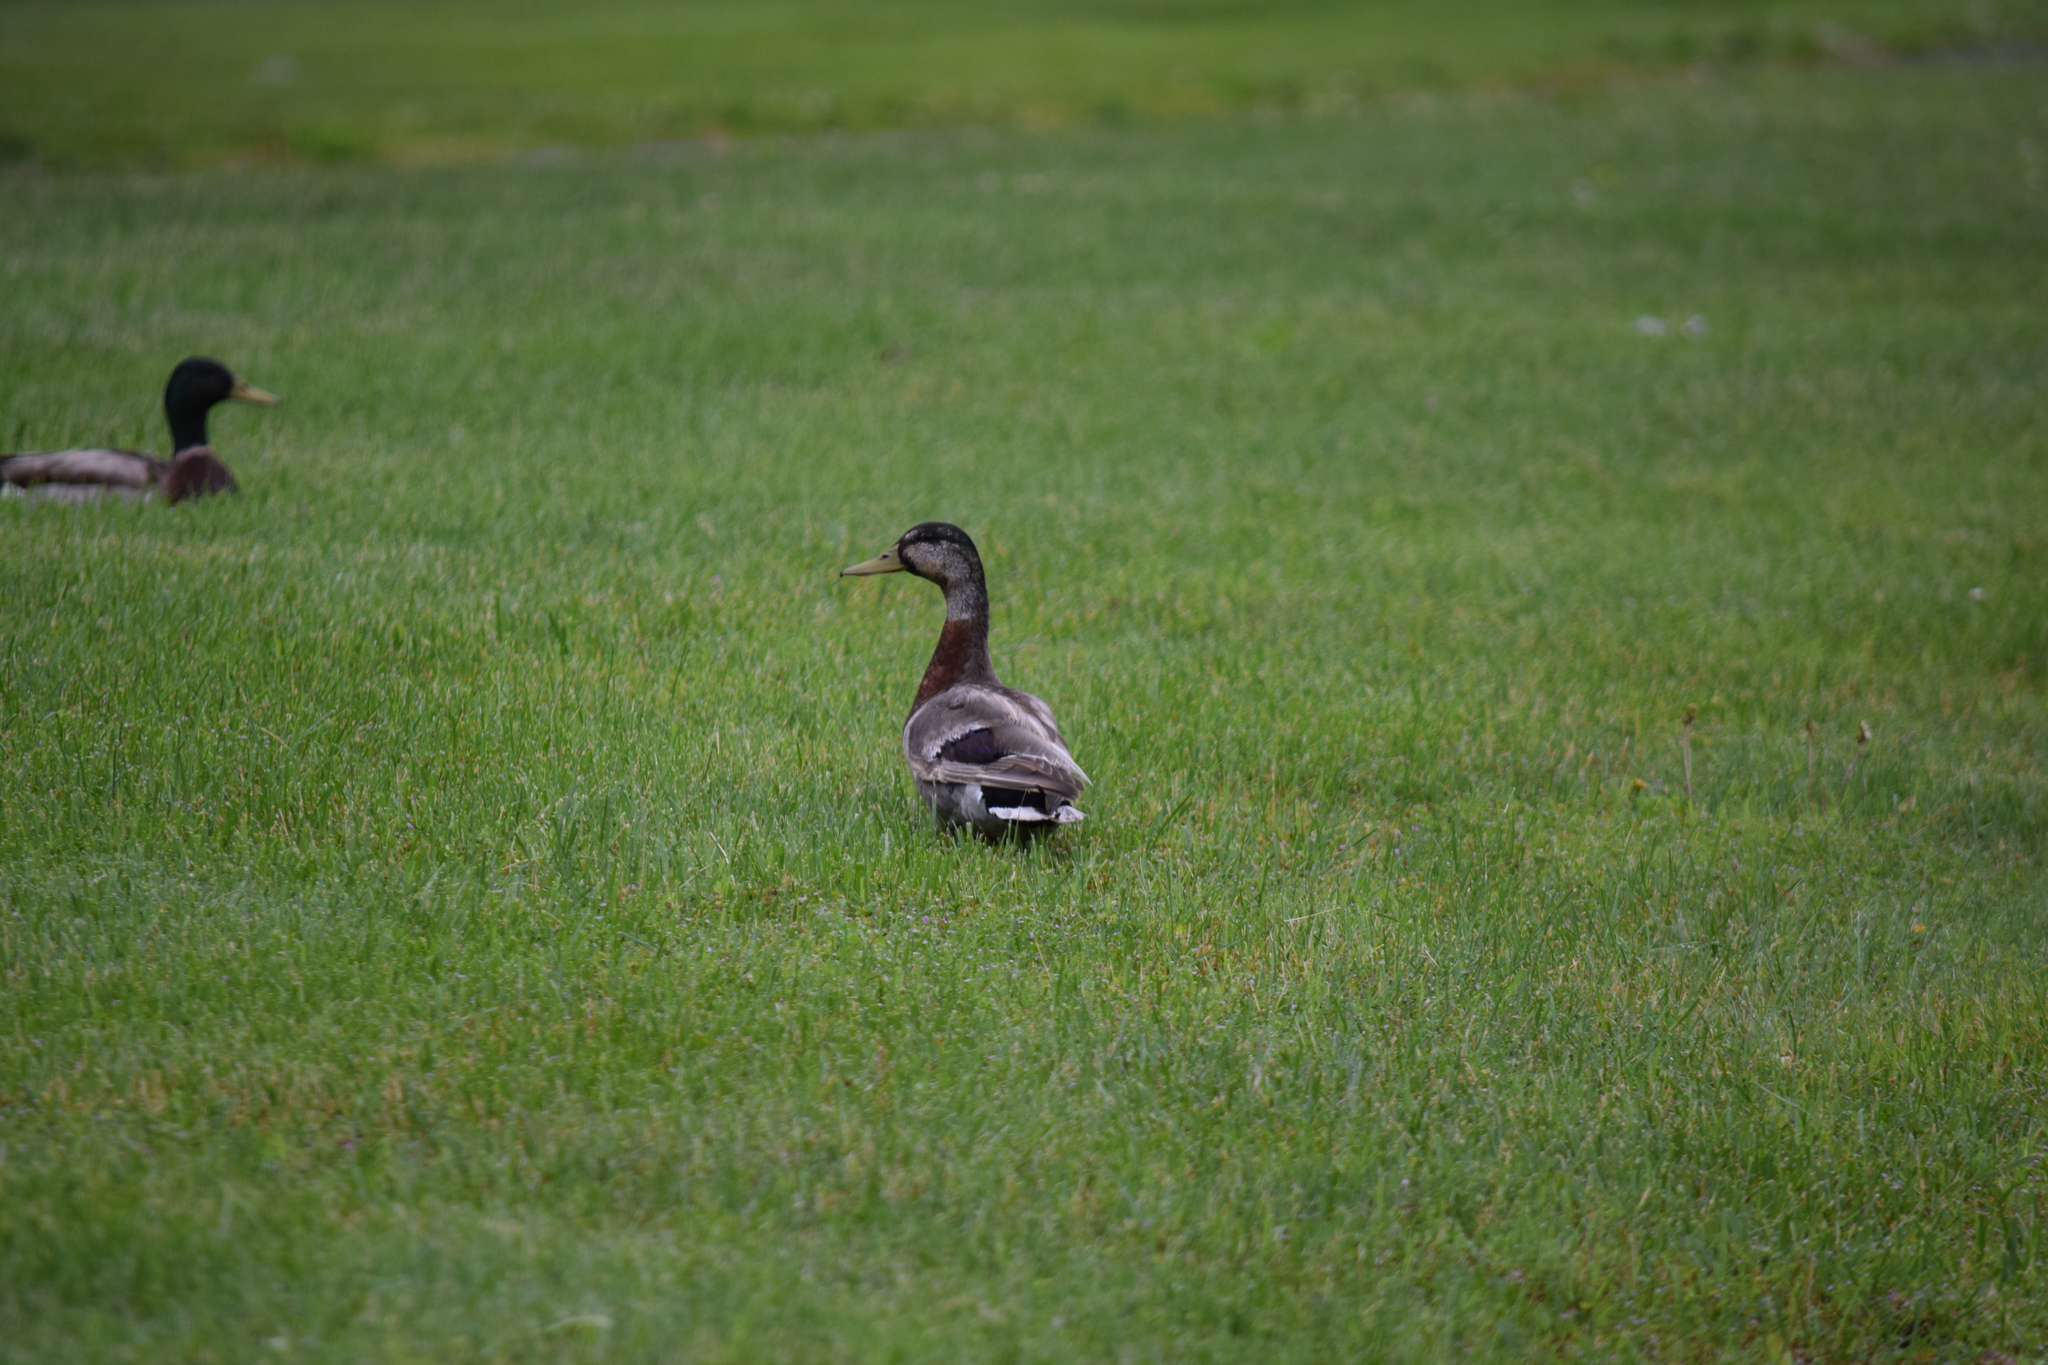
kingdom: Animalia
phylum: Chordata
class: Aves
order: Anseriformes
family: Anatidae
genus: Anas
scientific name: Anas platyrhynchos
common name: Mallard
